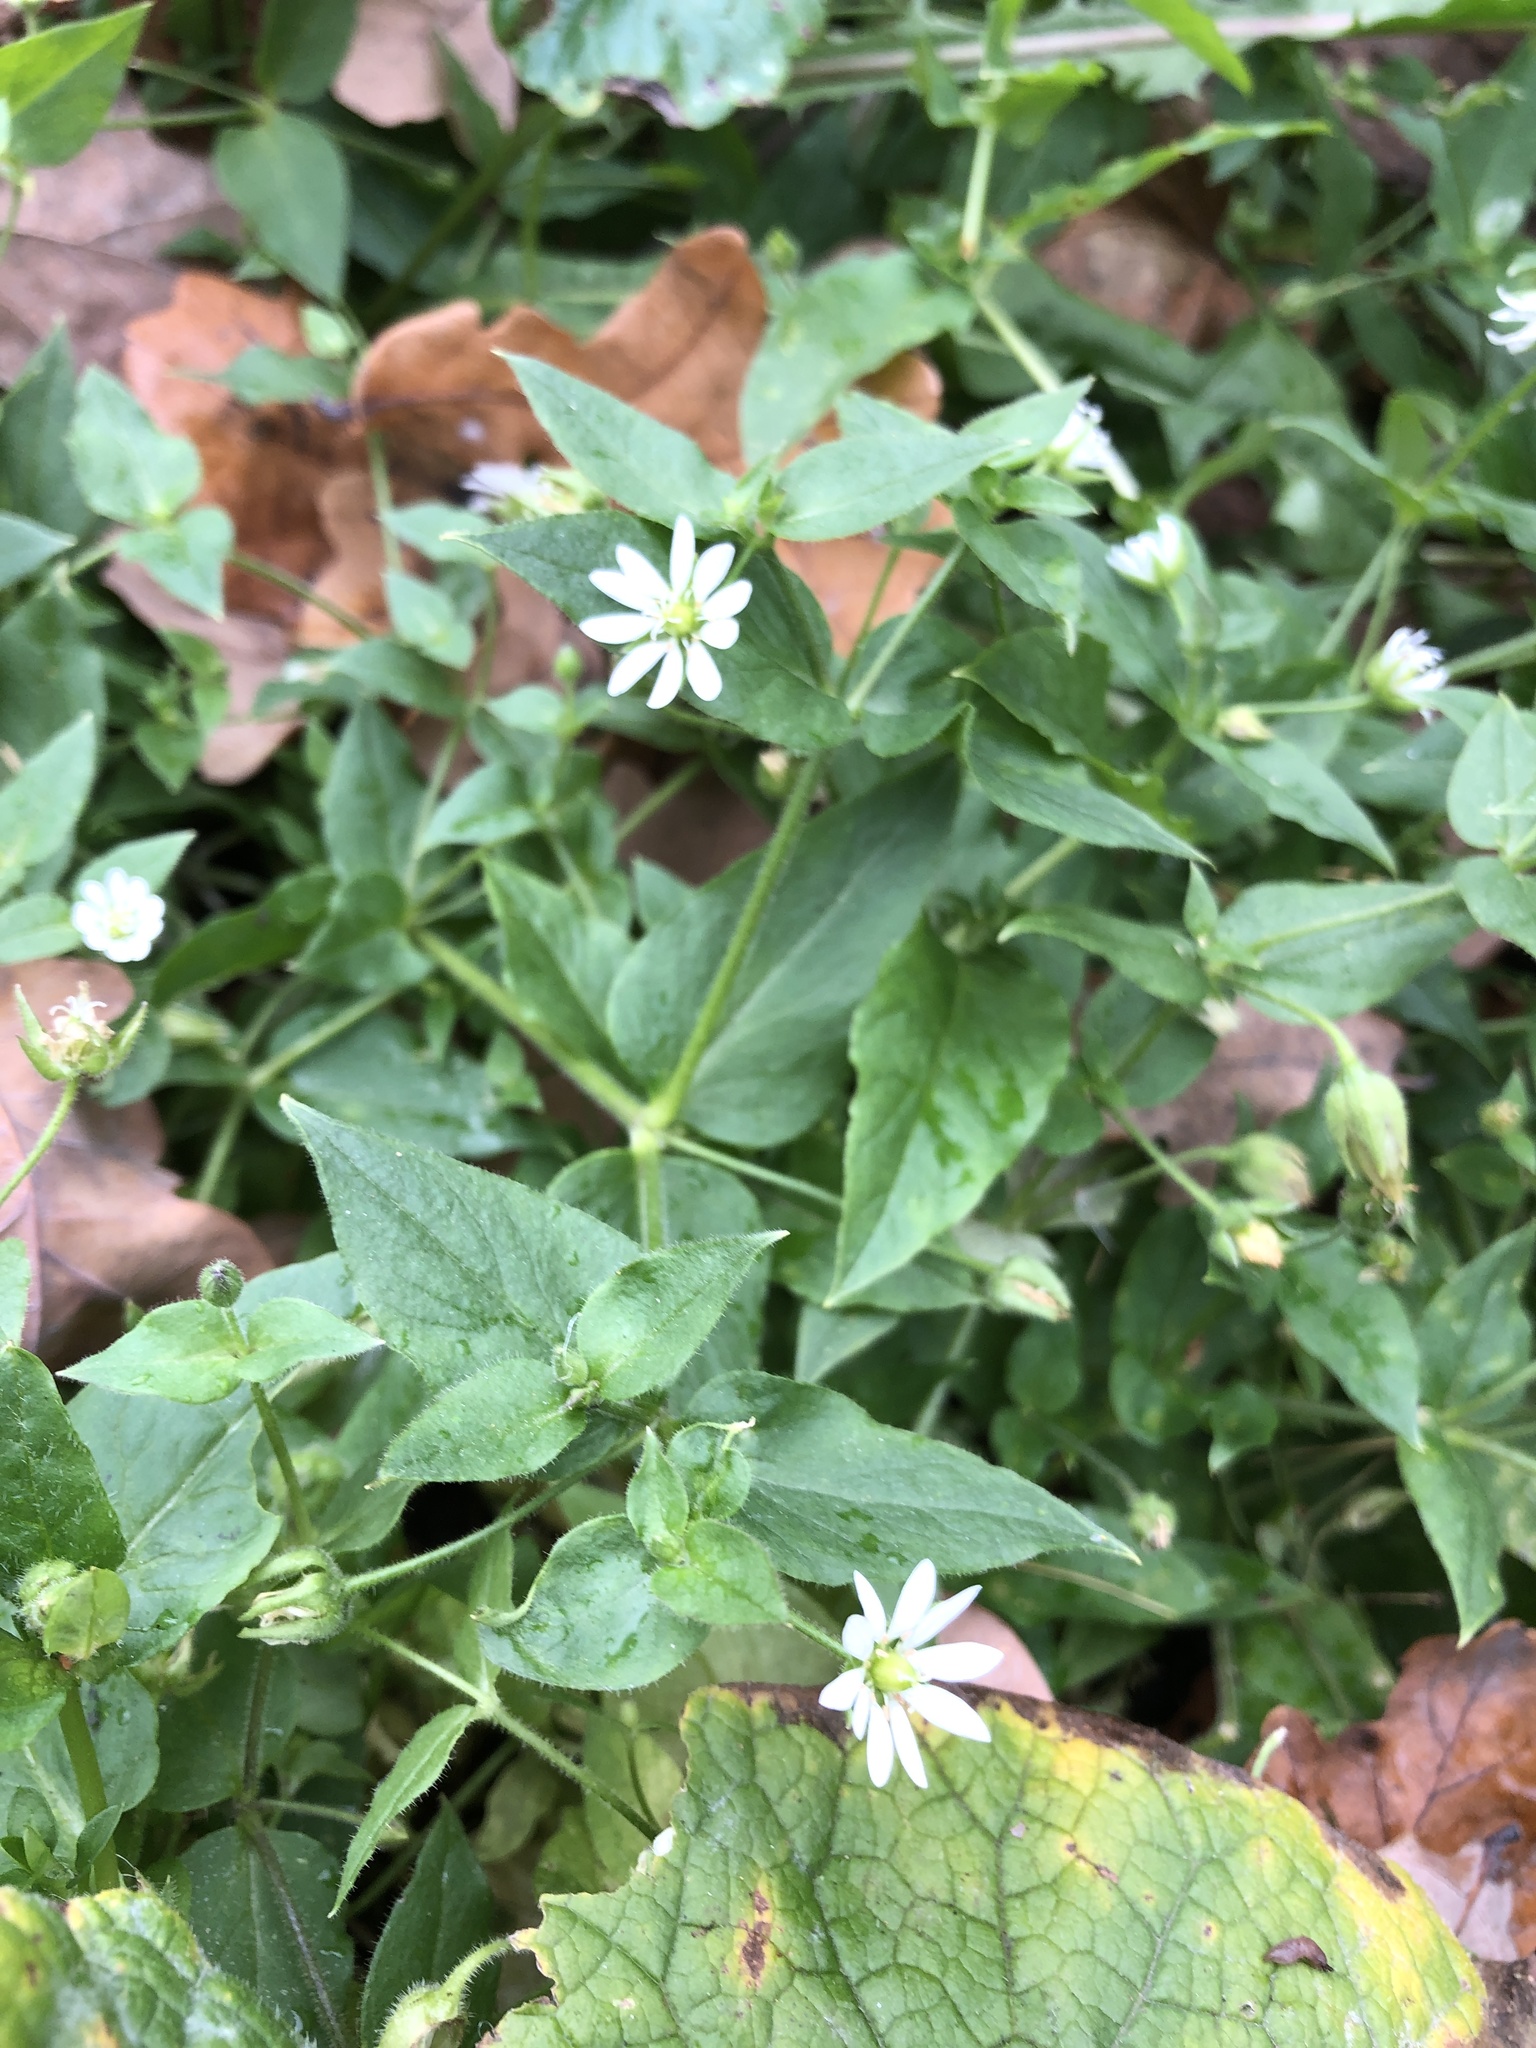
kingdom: Plantae
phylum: Tracheophyta
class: Magnoliopsida
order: Caryophyllales
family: Caryophyllaceae
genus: Stellaria
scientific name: Stellaria aquatica
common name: Water chickweed
